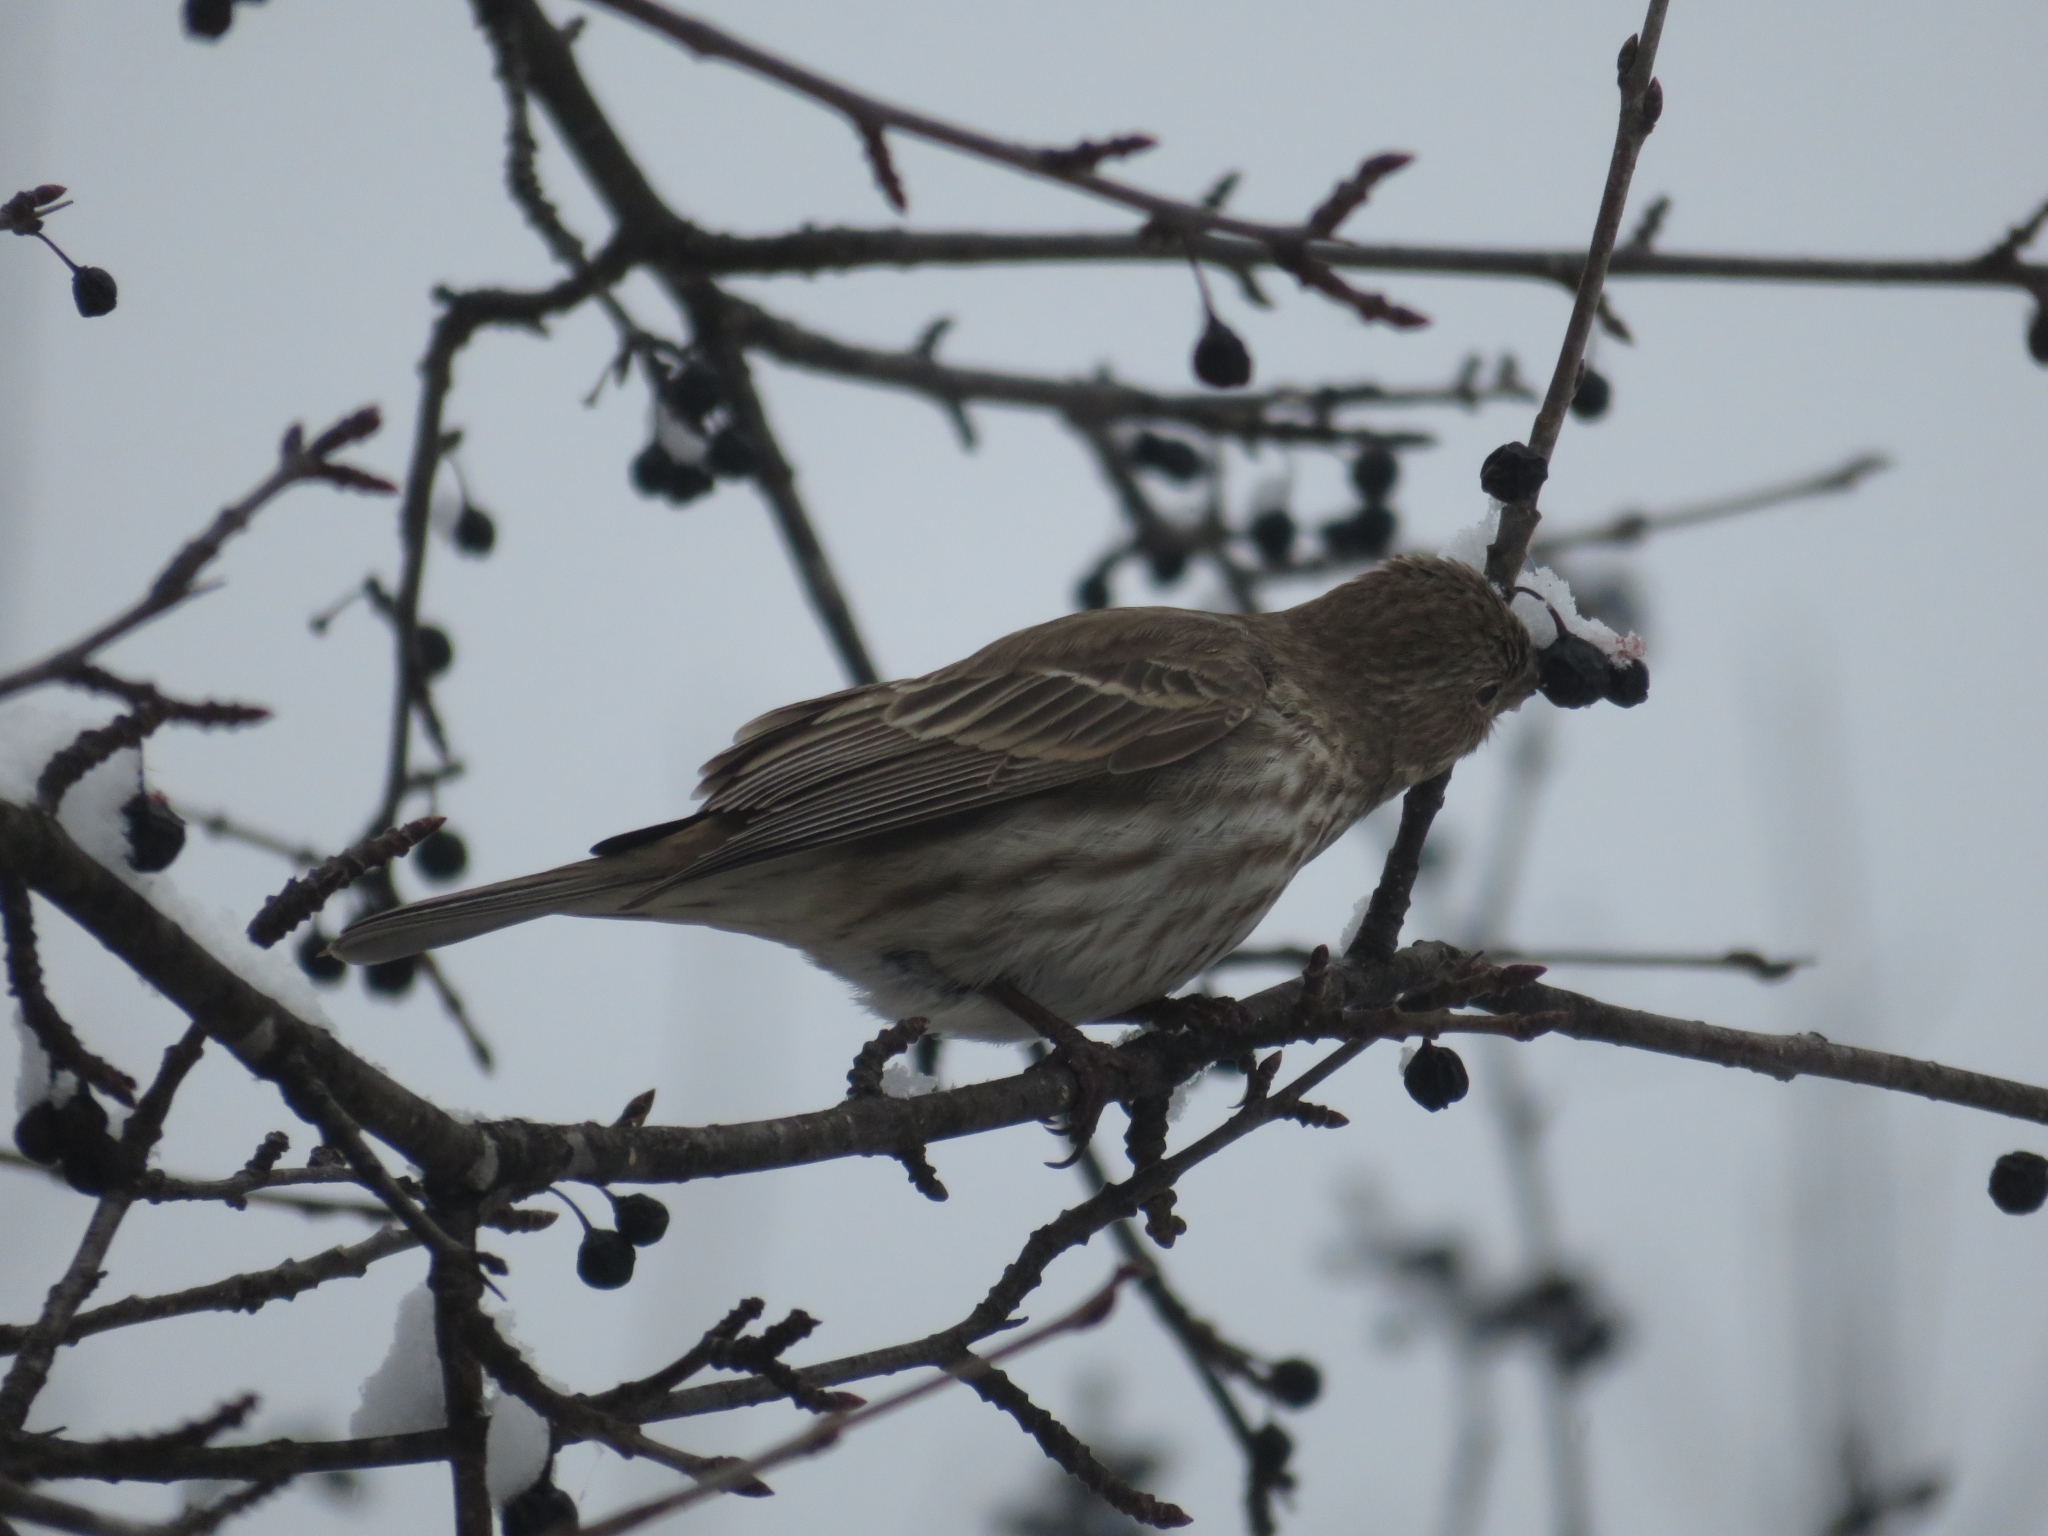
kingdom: Animalia
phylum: Chordata
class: Aves
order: Passeriformes
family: Fringillidae
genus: Haemorhous
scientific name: Haemorhous mexicanus
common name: House finch
